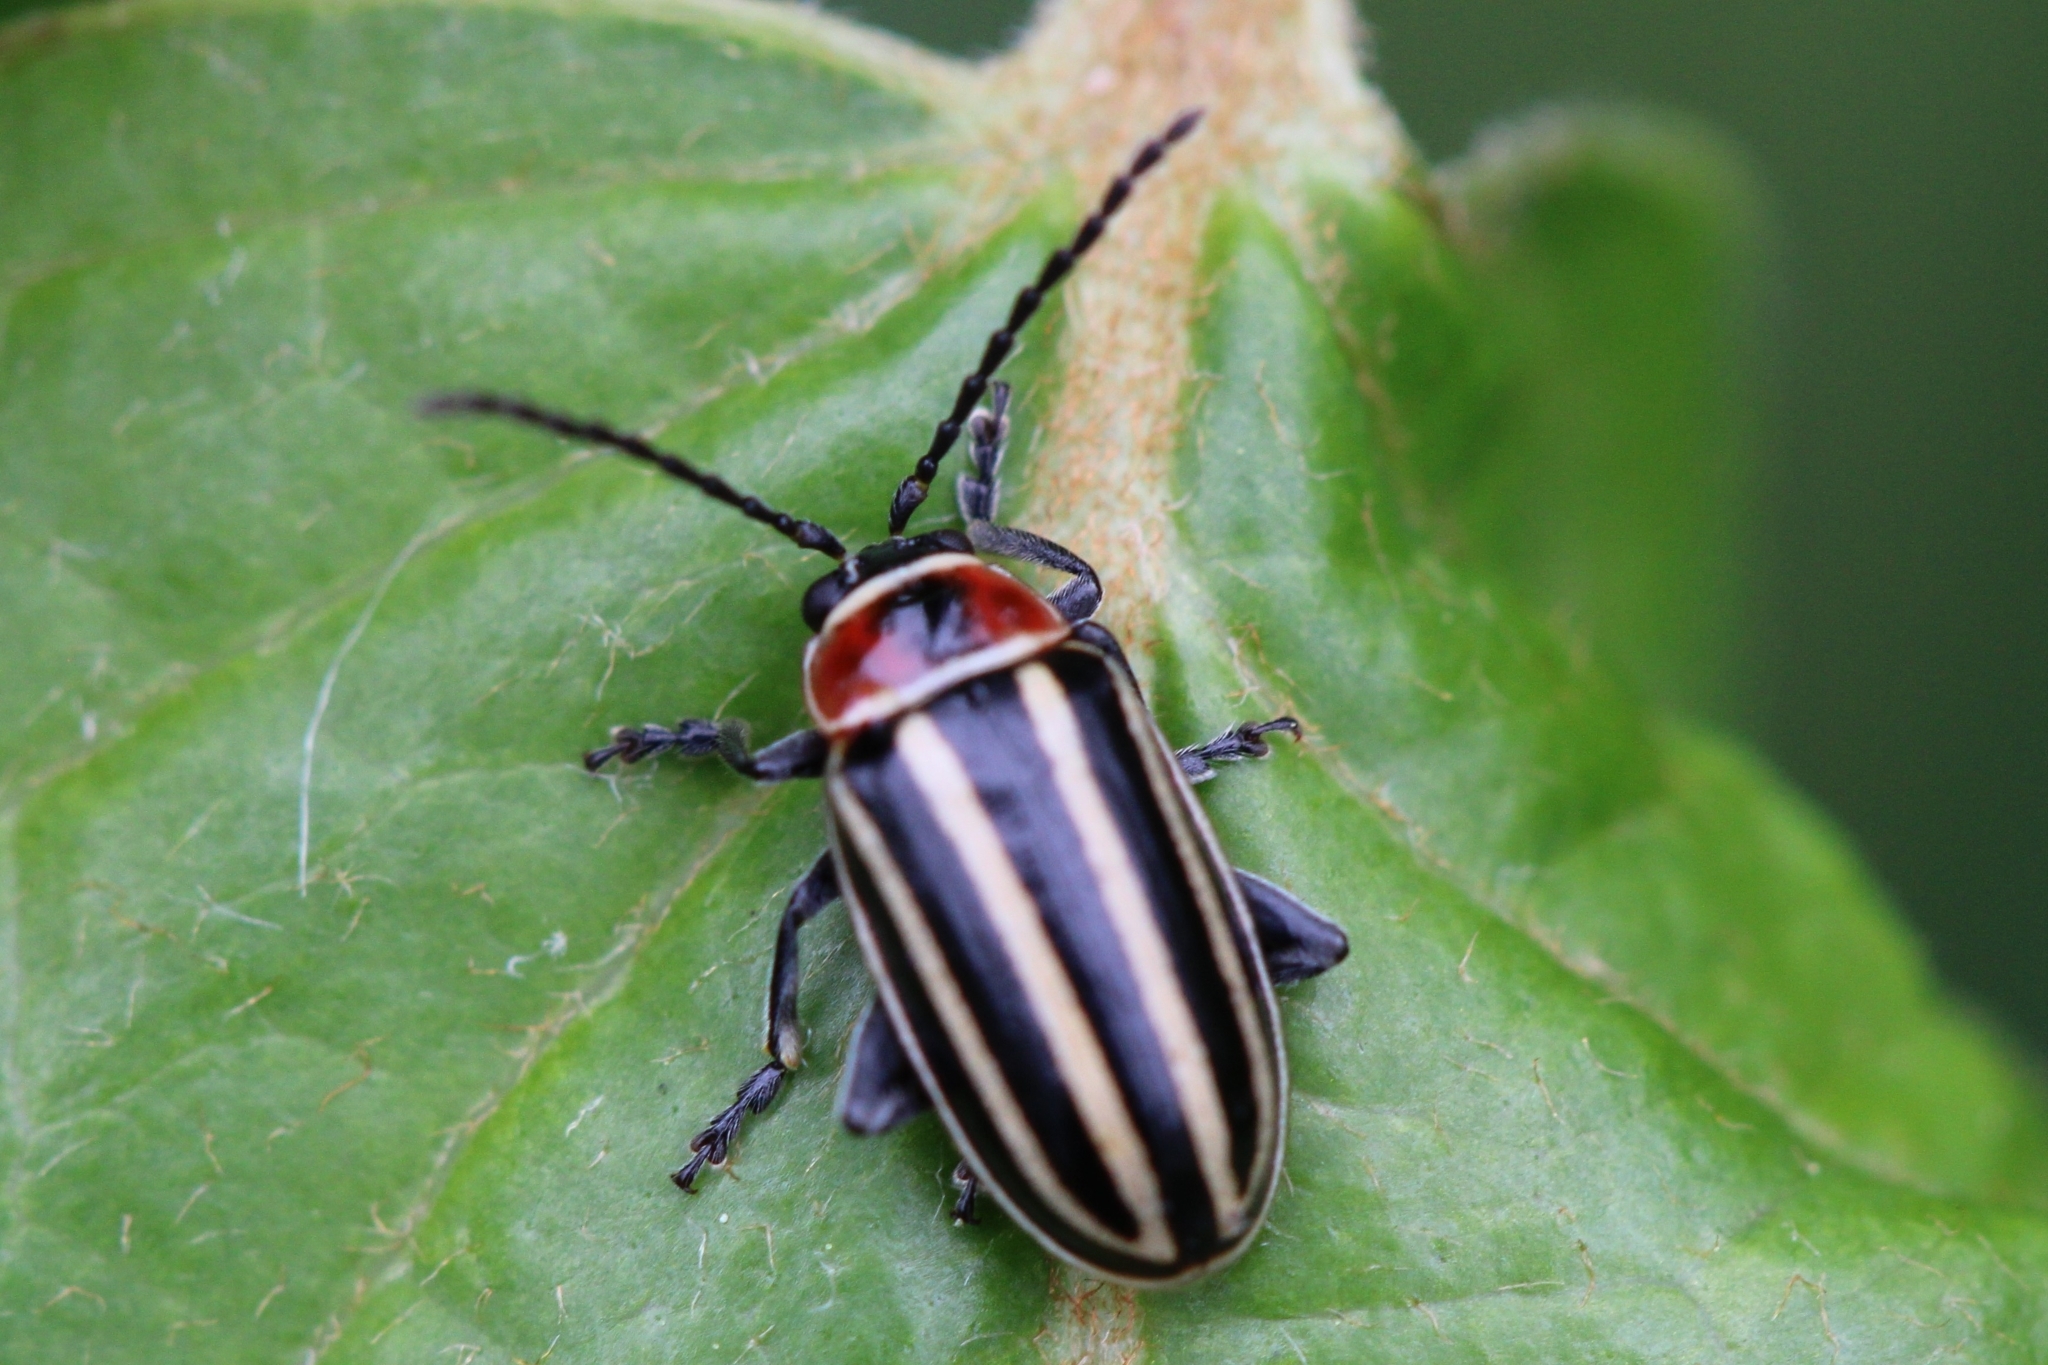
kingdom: Animalia
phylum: Arthropoda
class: Insecta
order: Coleoptera
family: Chrysomelidae
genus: Disonycha
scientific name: Disonycha pensylvanica
